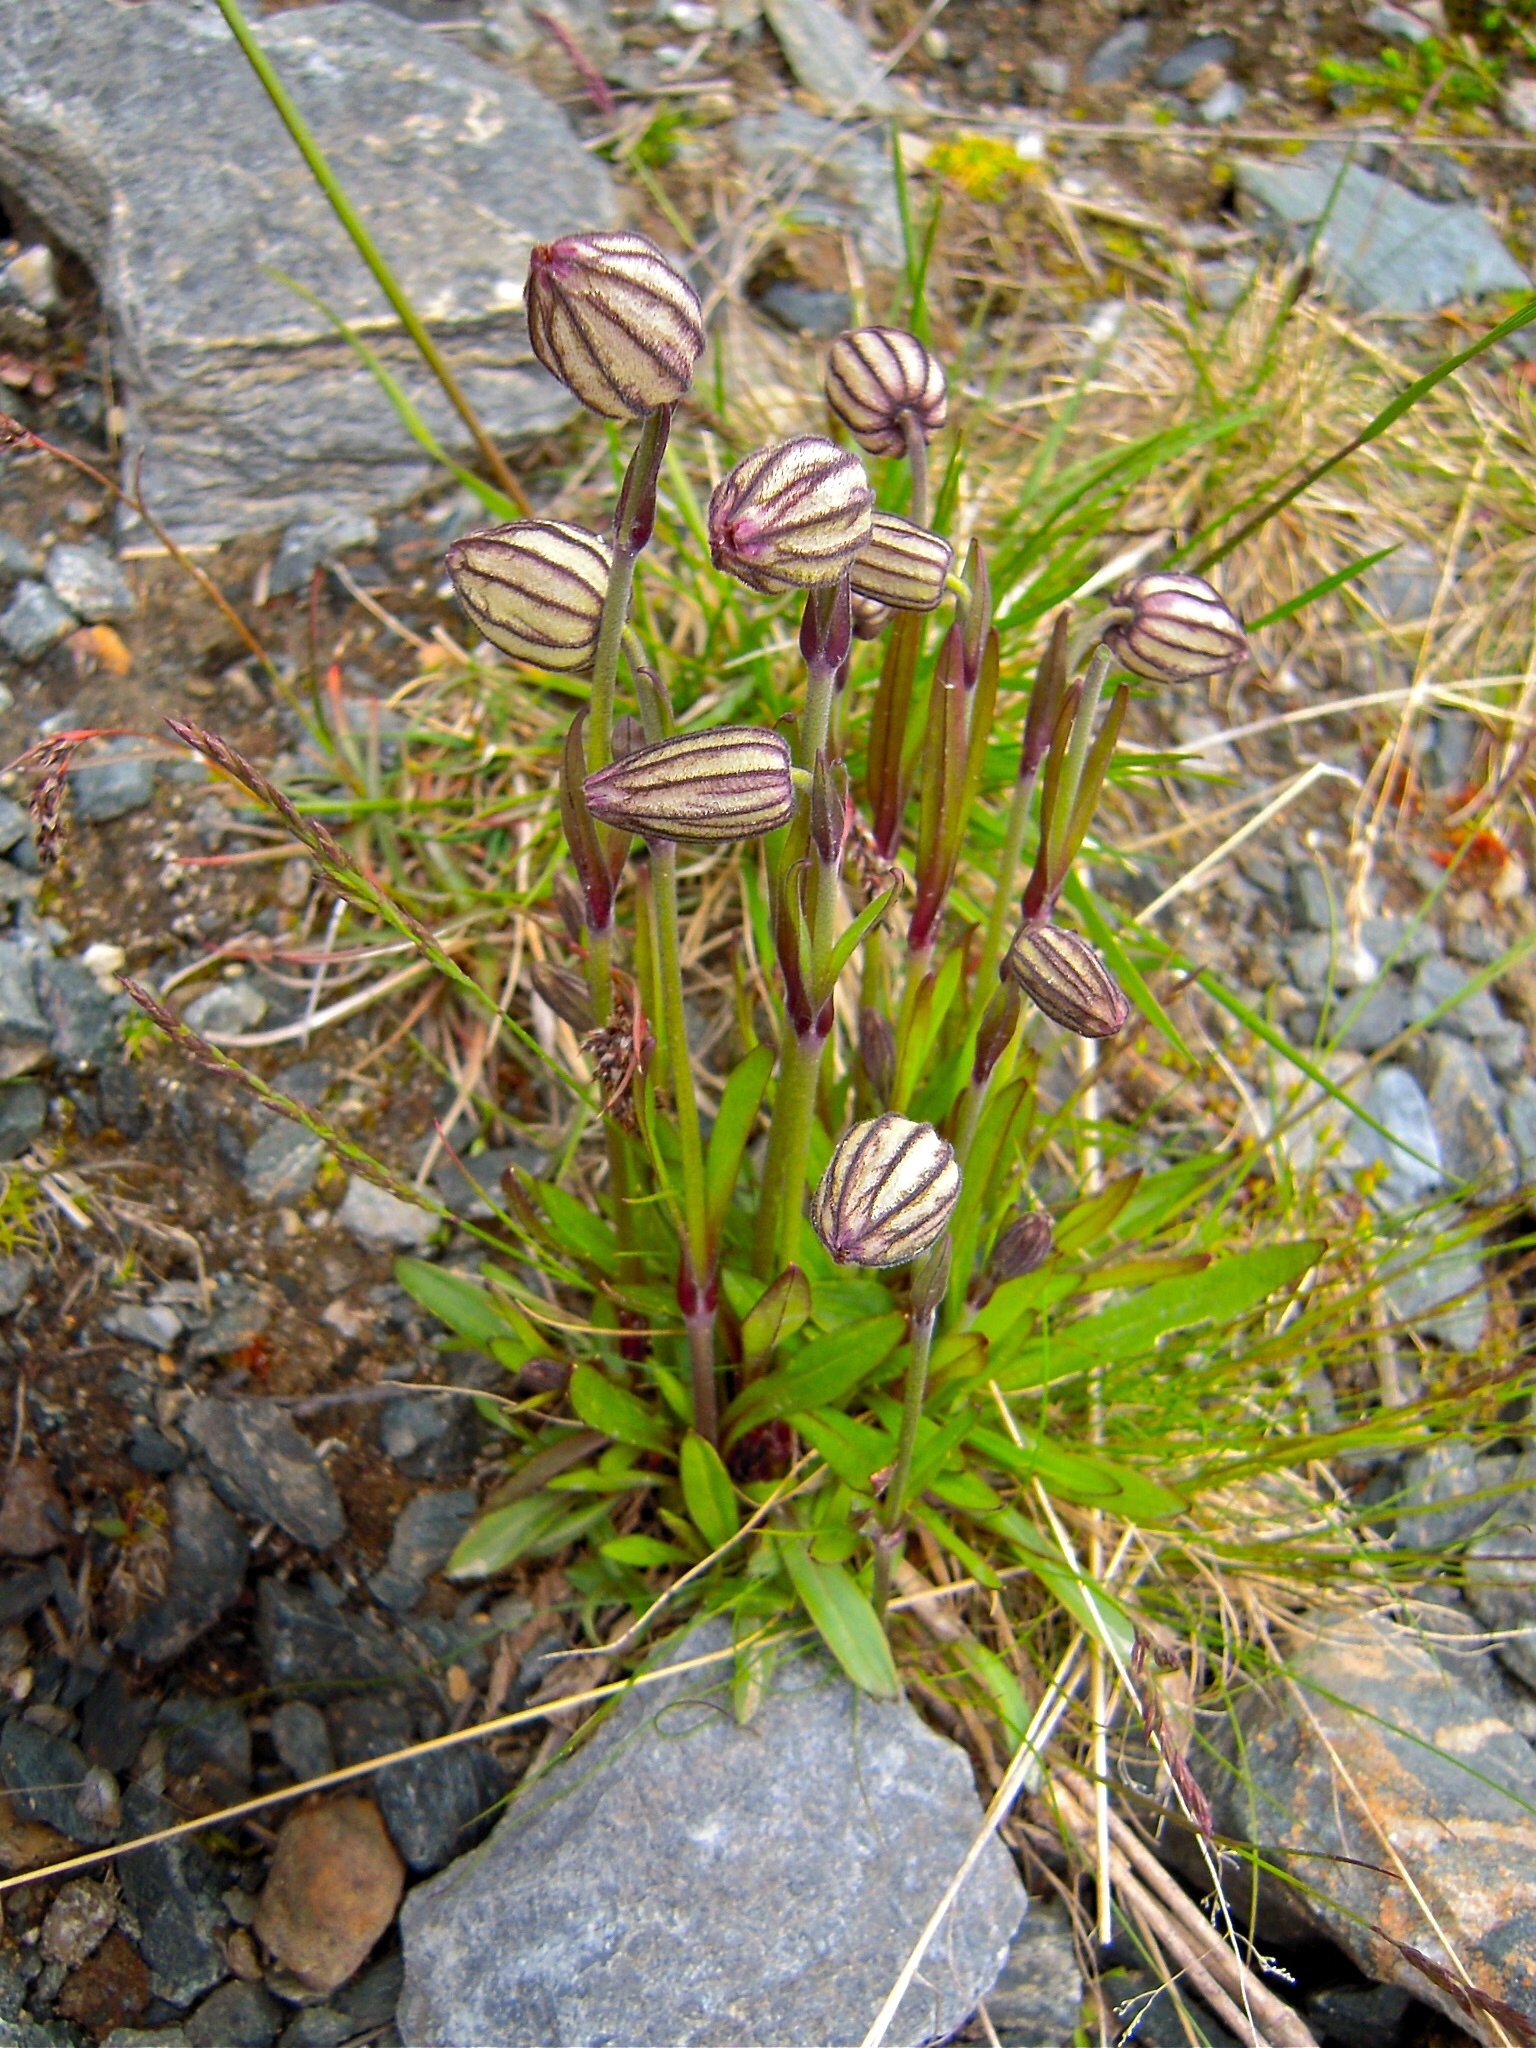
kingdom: Plantae
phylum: Tracheophyta
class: Magnoliopsida
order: Caryophyllales
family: Caryophyllaceae
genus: Silene
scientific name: Silene wahlbergella
